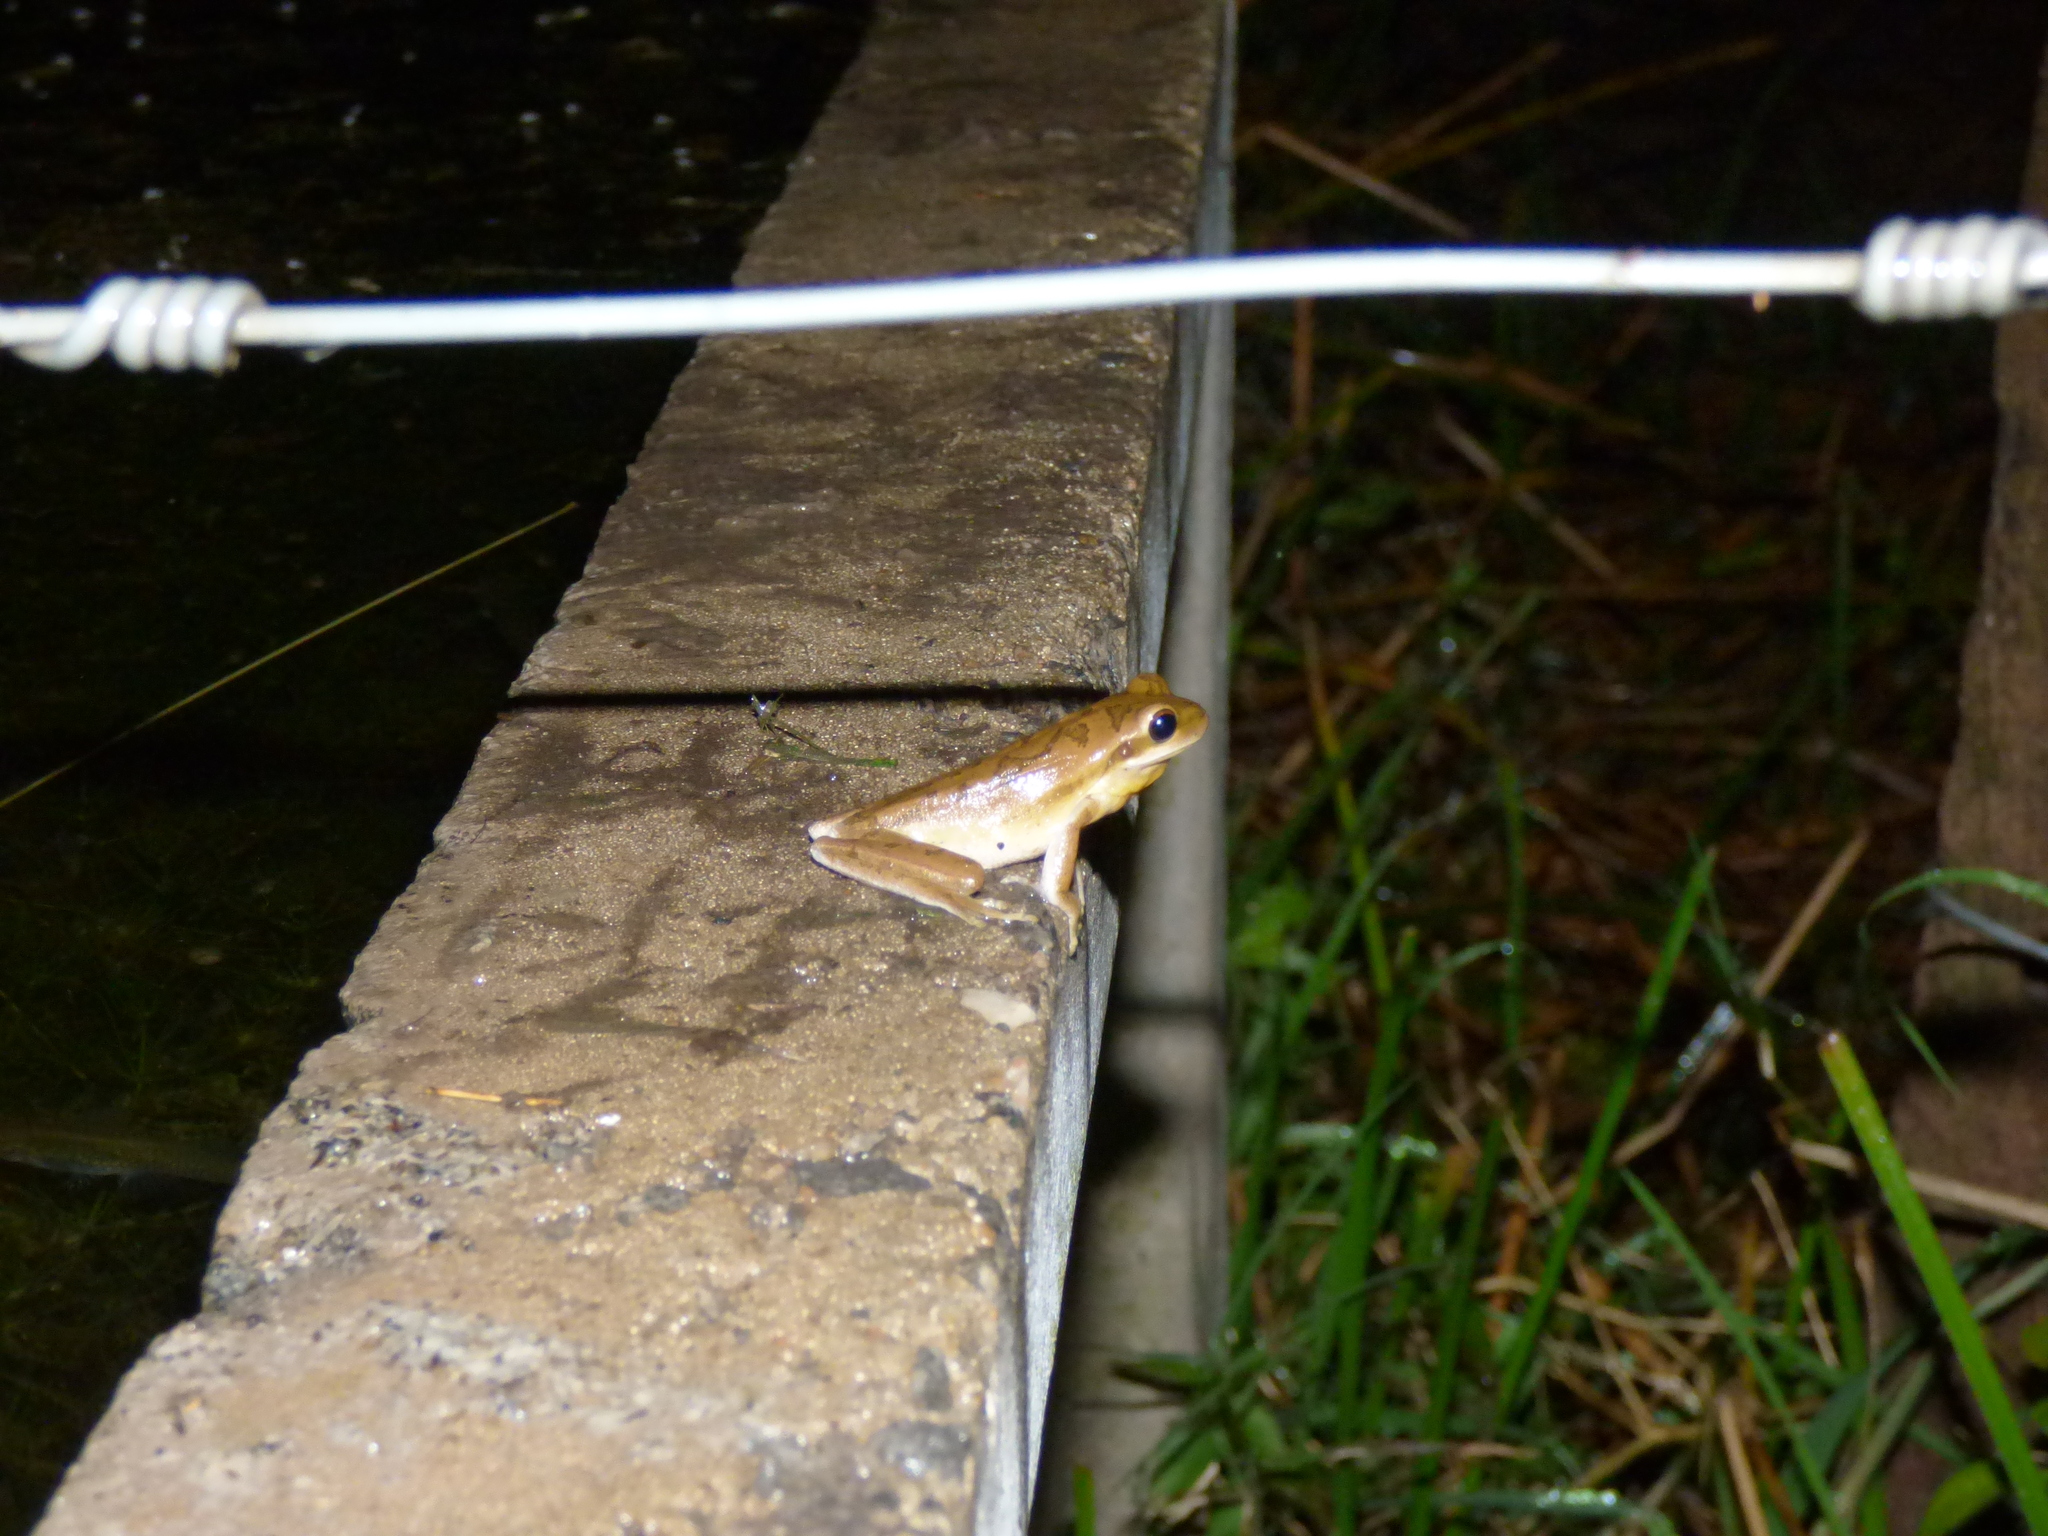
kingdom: Animalia
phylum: Chordata
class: Amphibia
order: Anura
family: Hylidae
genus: Boana
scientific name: Boana pulchella
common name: Montevideo treefrog
